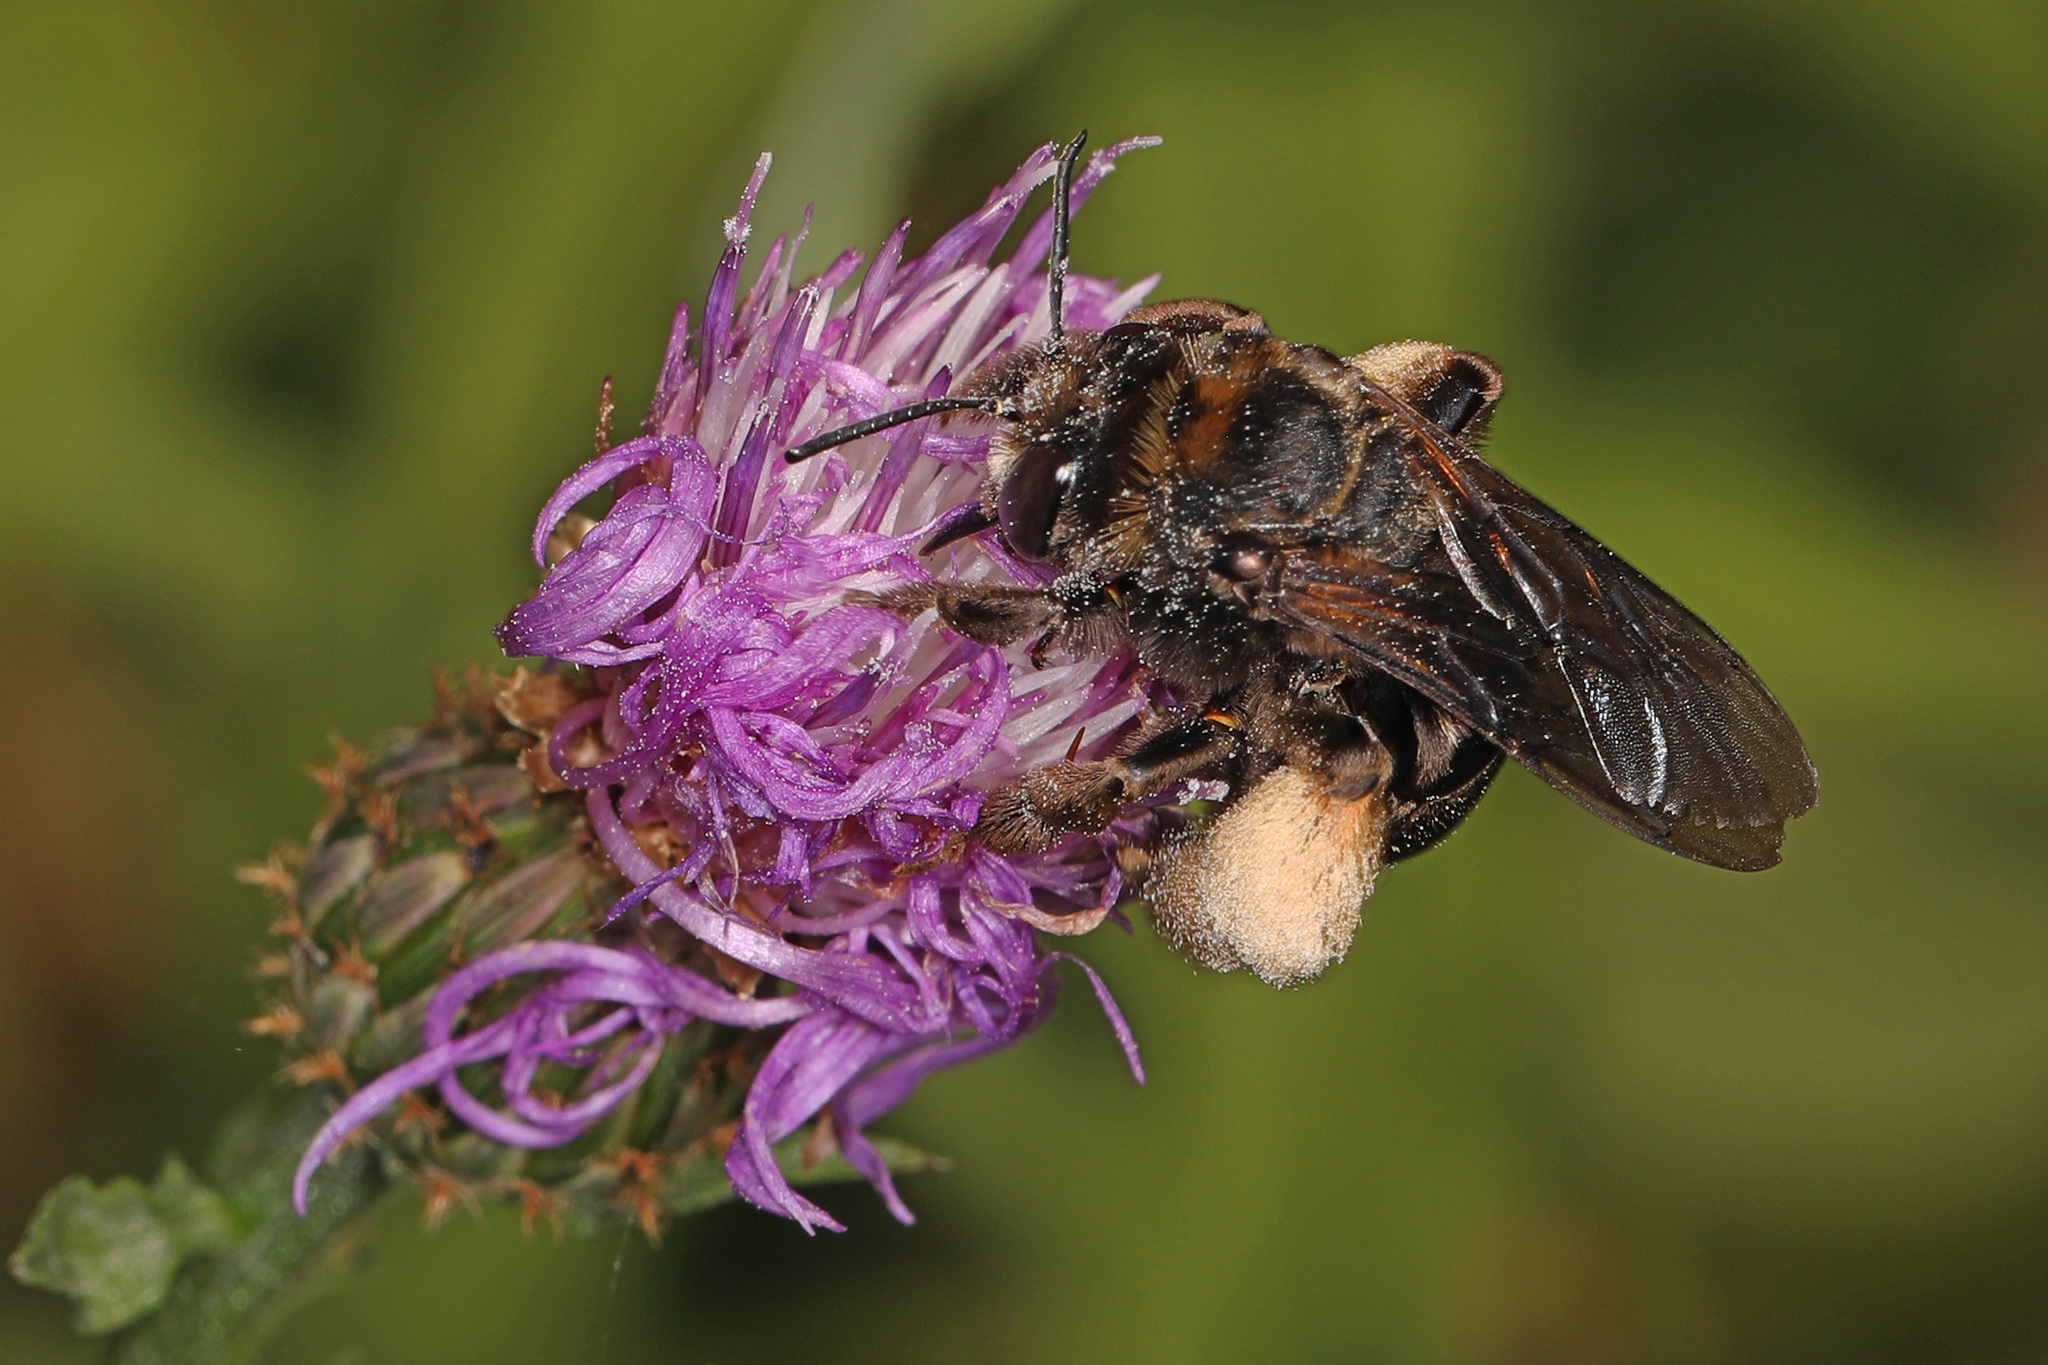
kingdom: Animalia
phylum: Arthropoda
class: Insecta
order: Hymenoptera
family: Apidae
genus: Svastra
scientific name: Svastra obliqua
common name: Oblique longhorn
